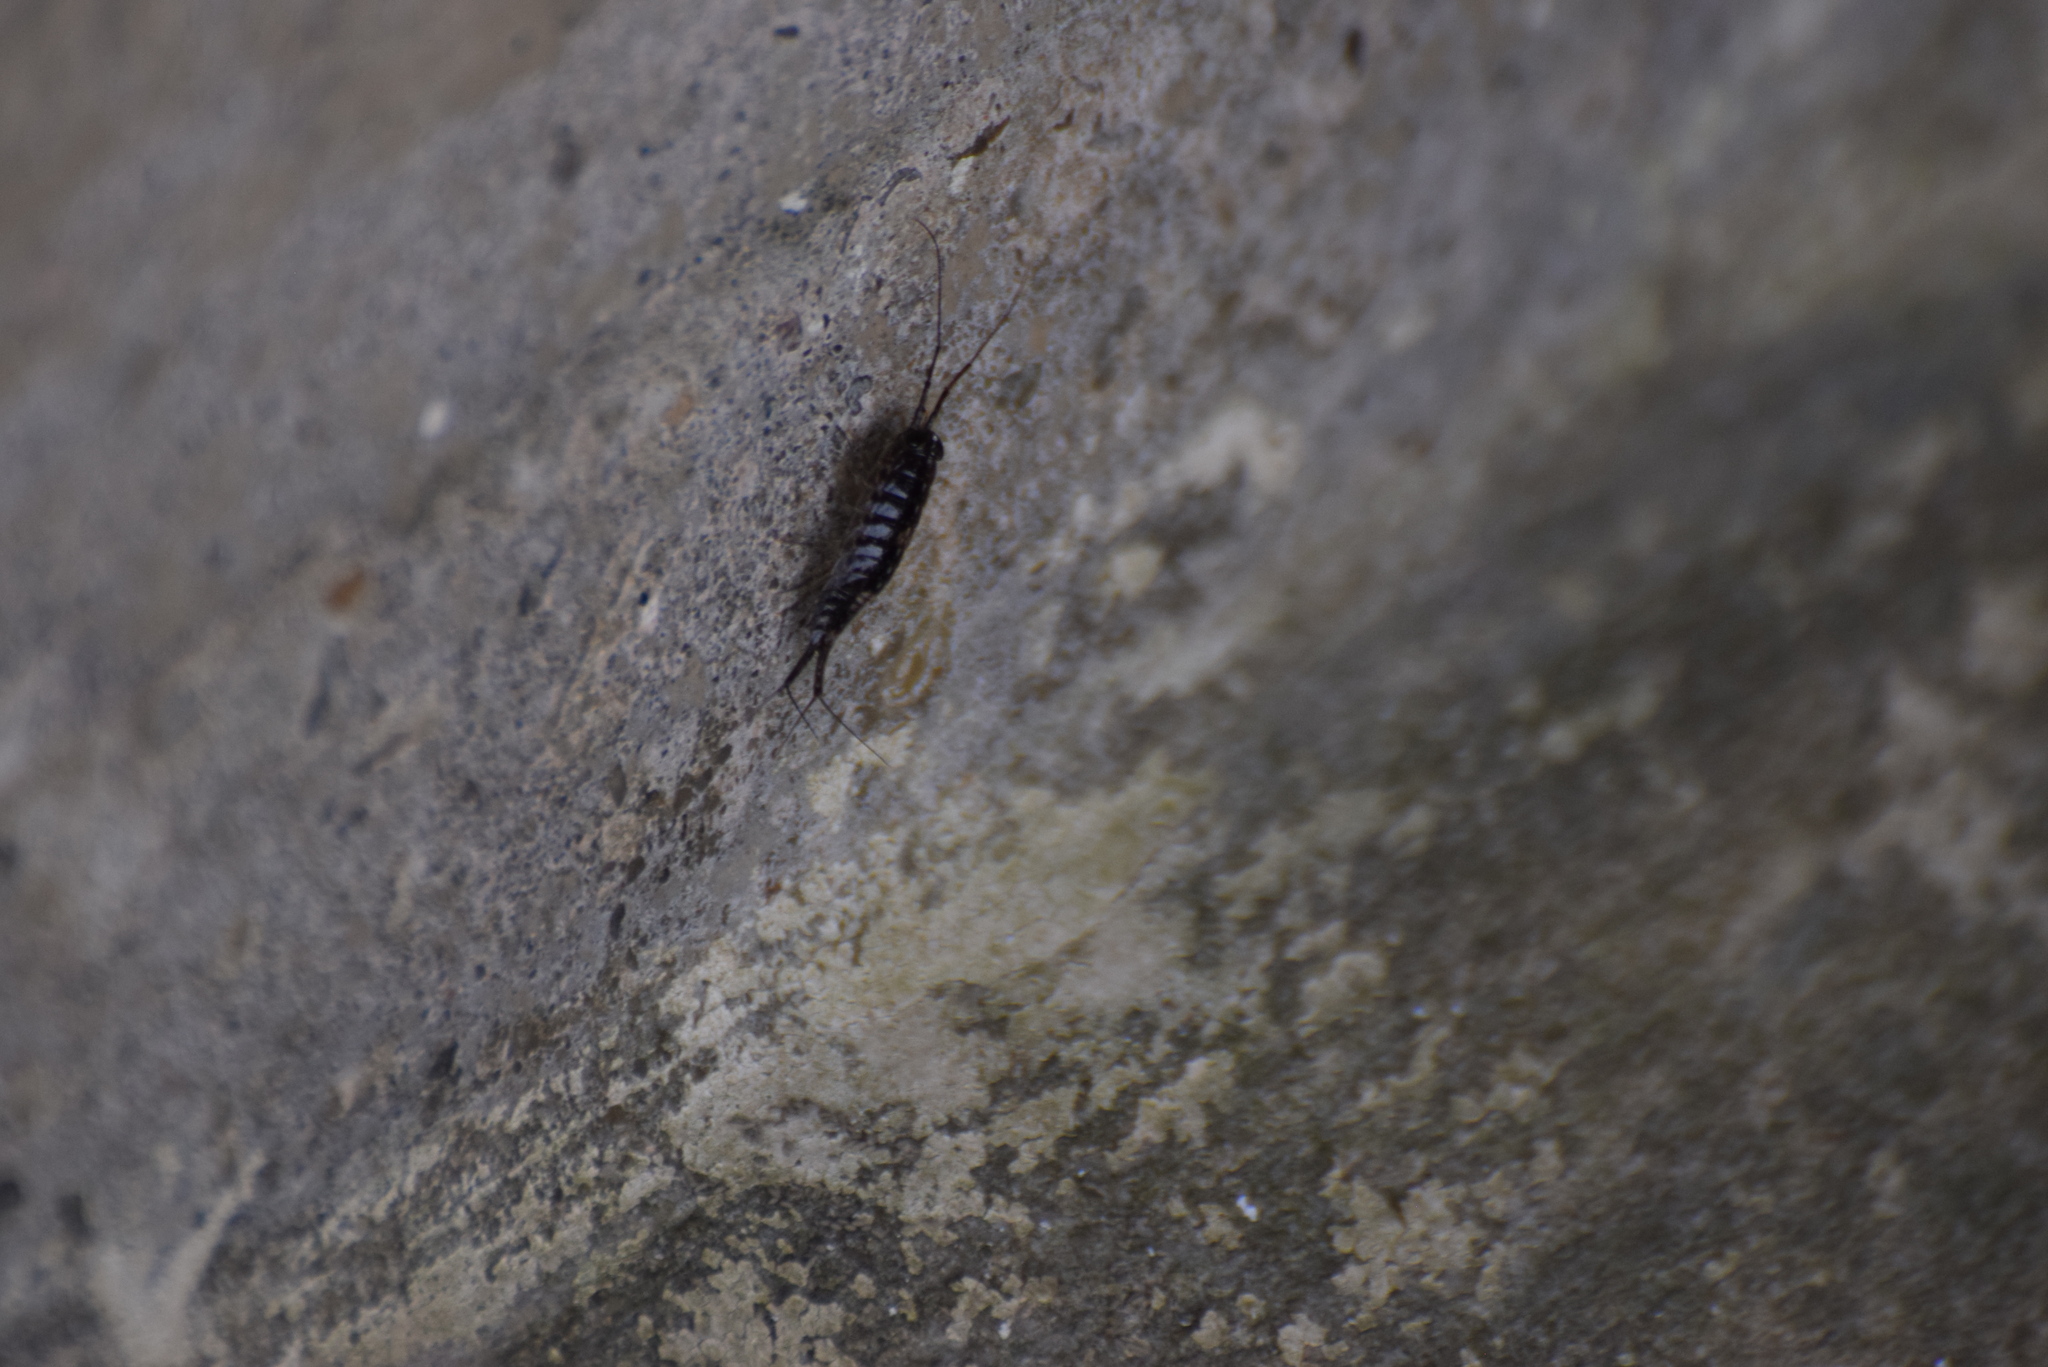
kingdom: Animalia
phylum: Arthropoda
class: Malacostraca
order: Isopoda
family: Ligiidae
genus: Ligia
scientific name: Ligia exotica
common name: Wharf roach
